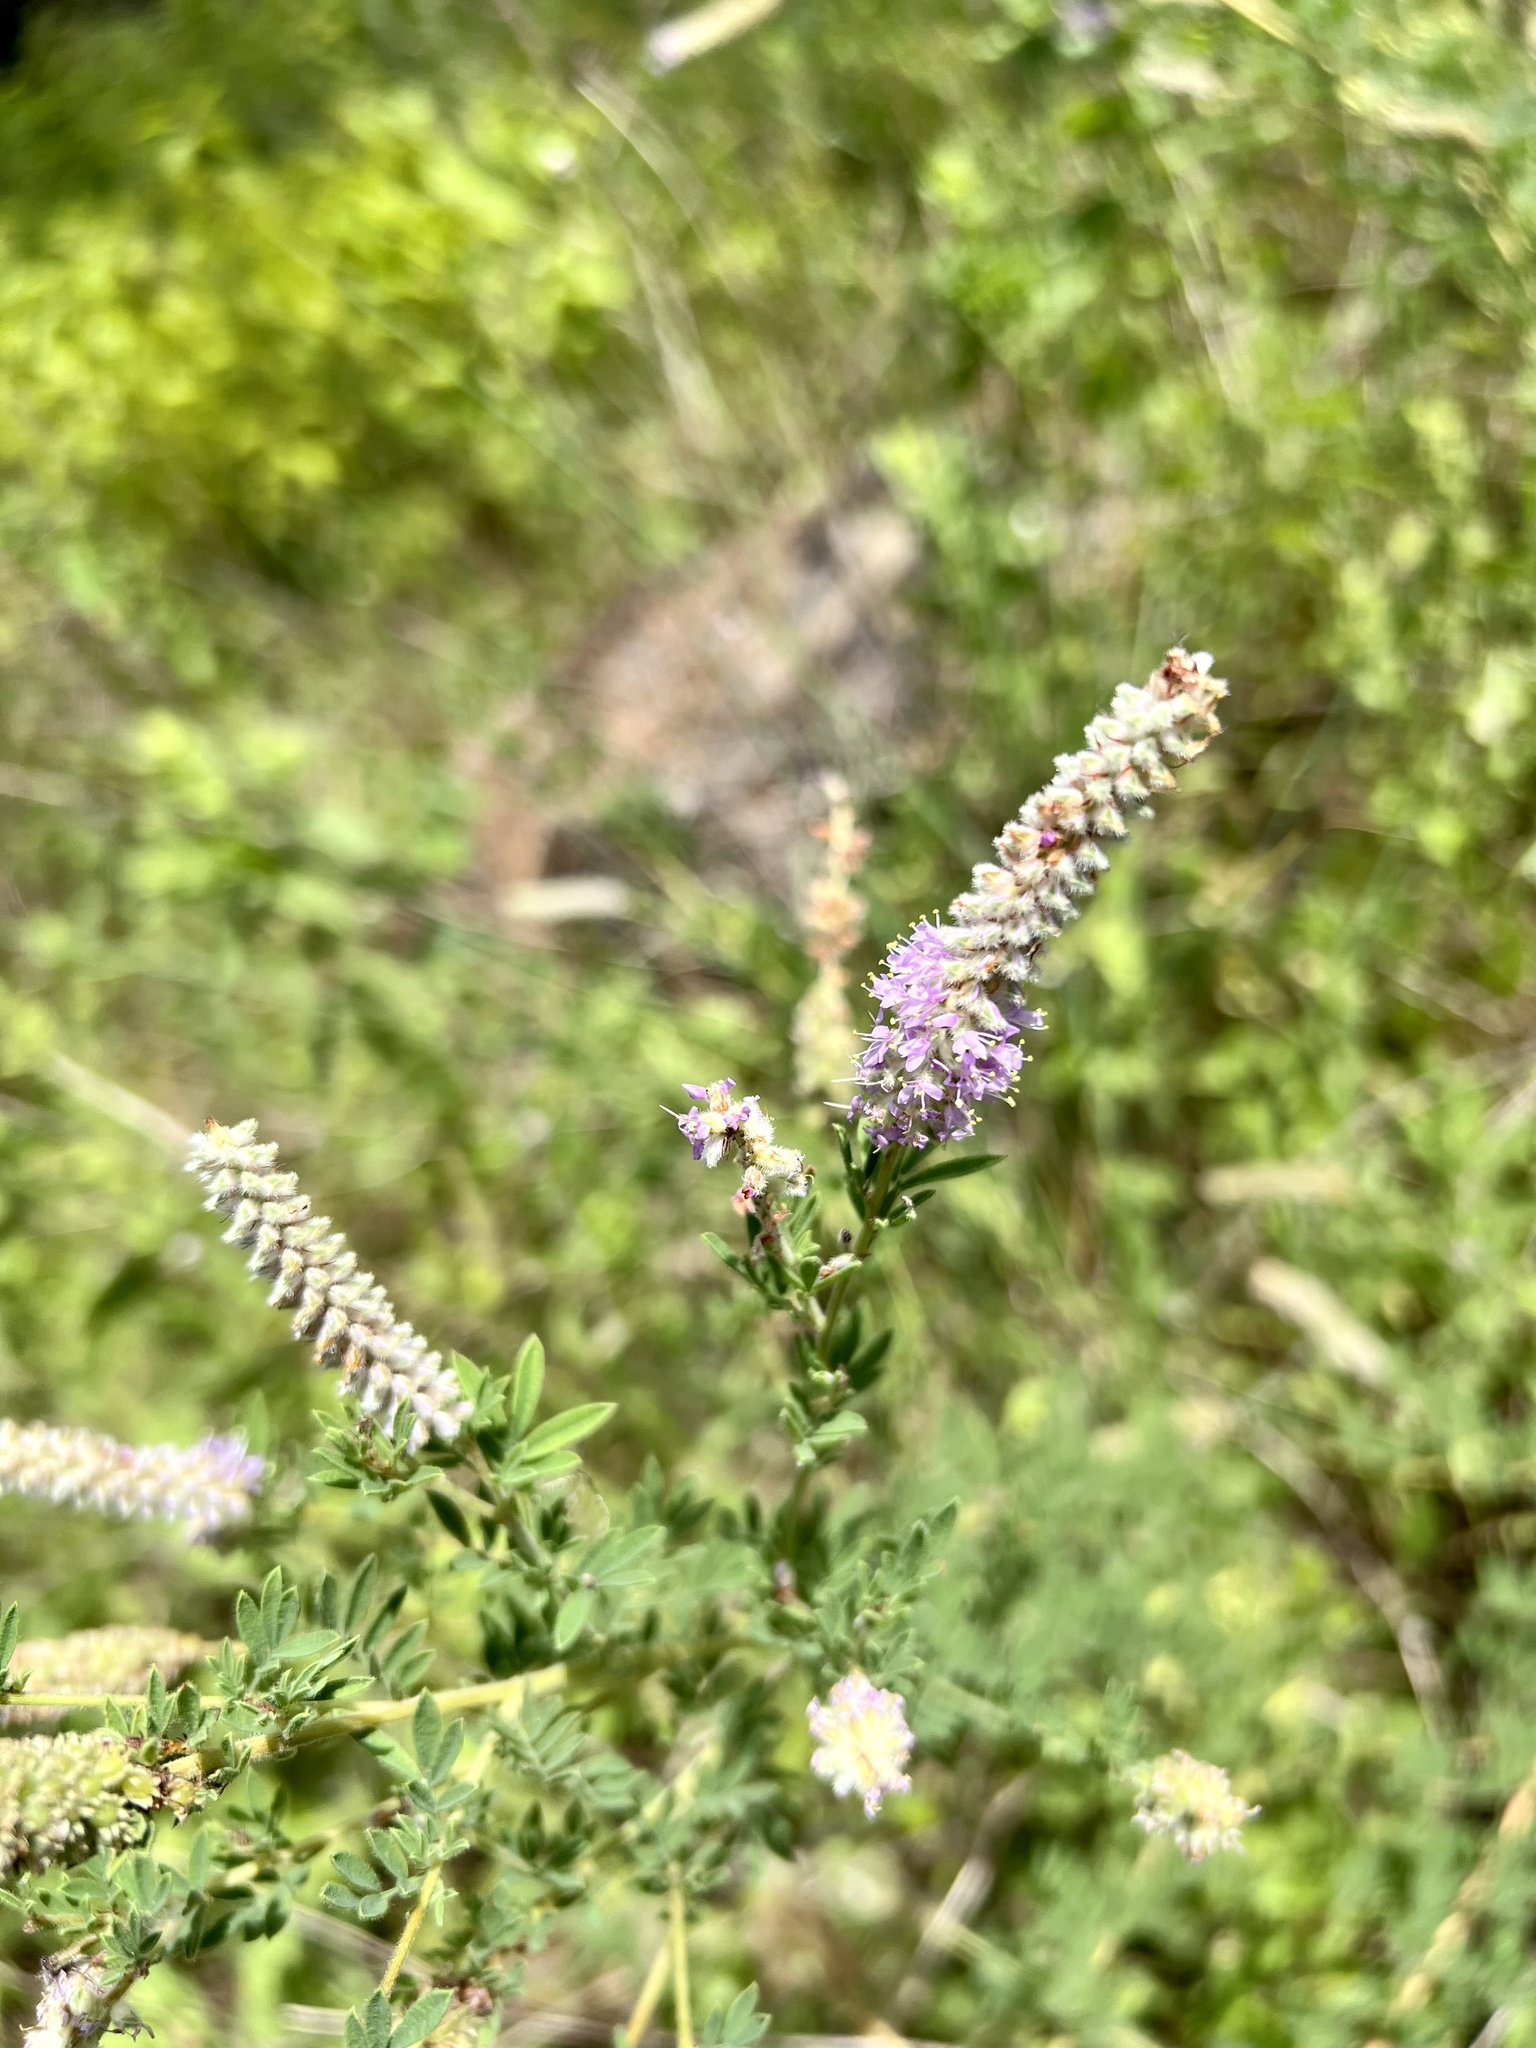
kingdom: Plantae
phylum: Tracheophyta
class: Magnoliopsida
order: Fabales
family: Fabaceae
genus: Dalea
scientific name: Dalea villosa
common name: Silky prairie-clover
